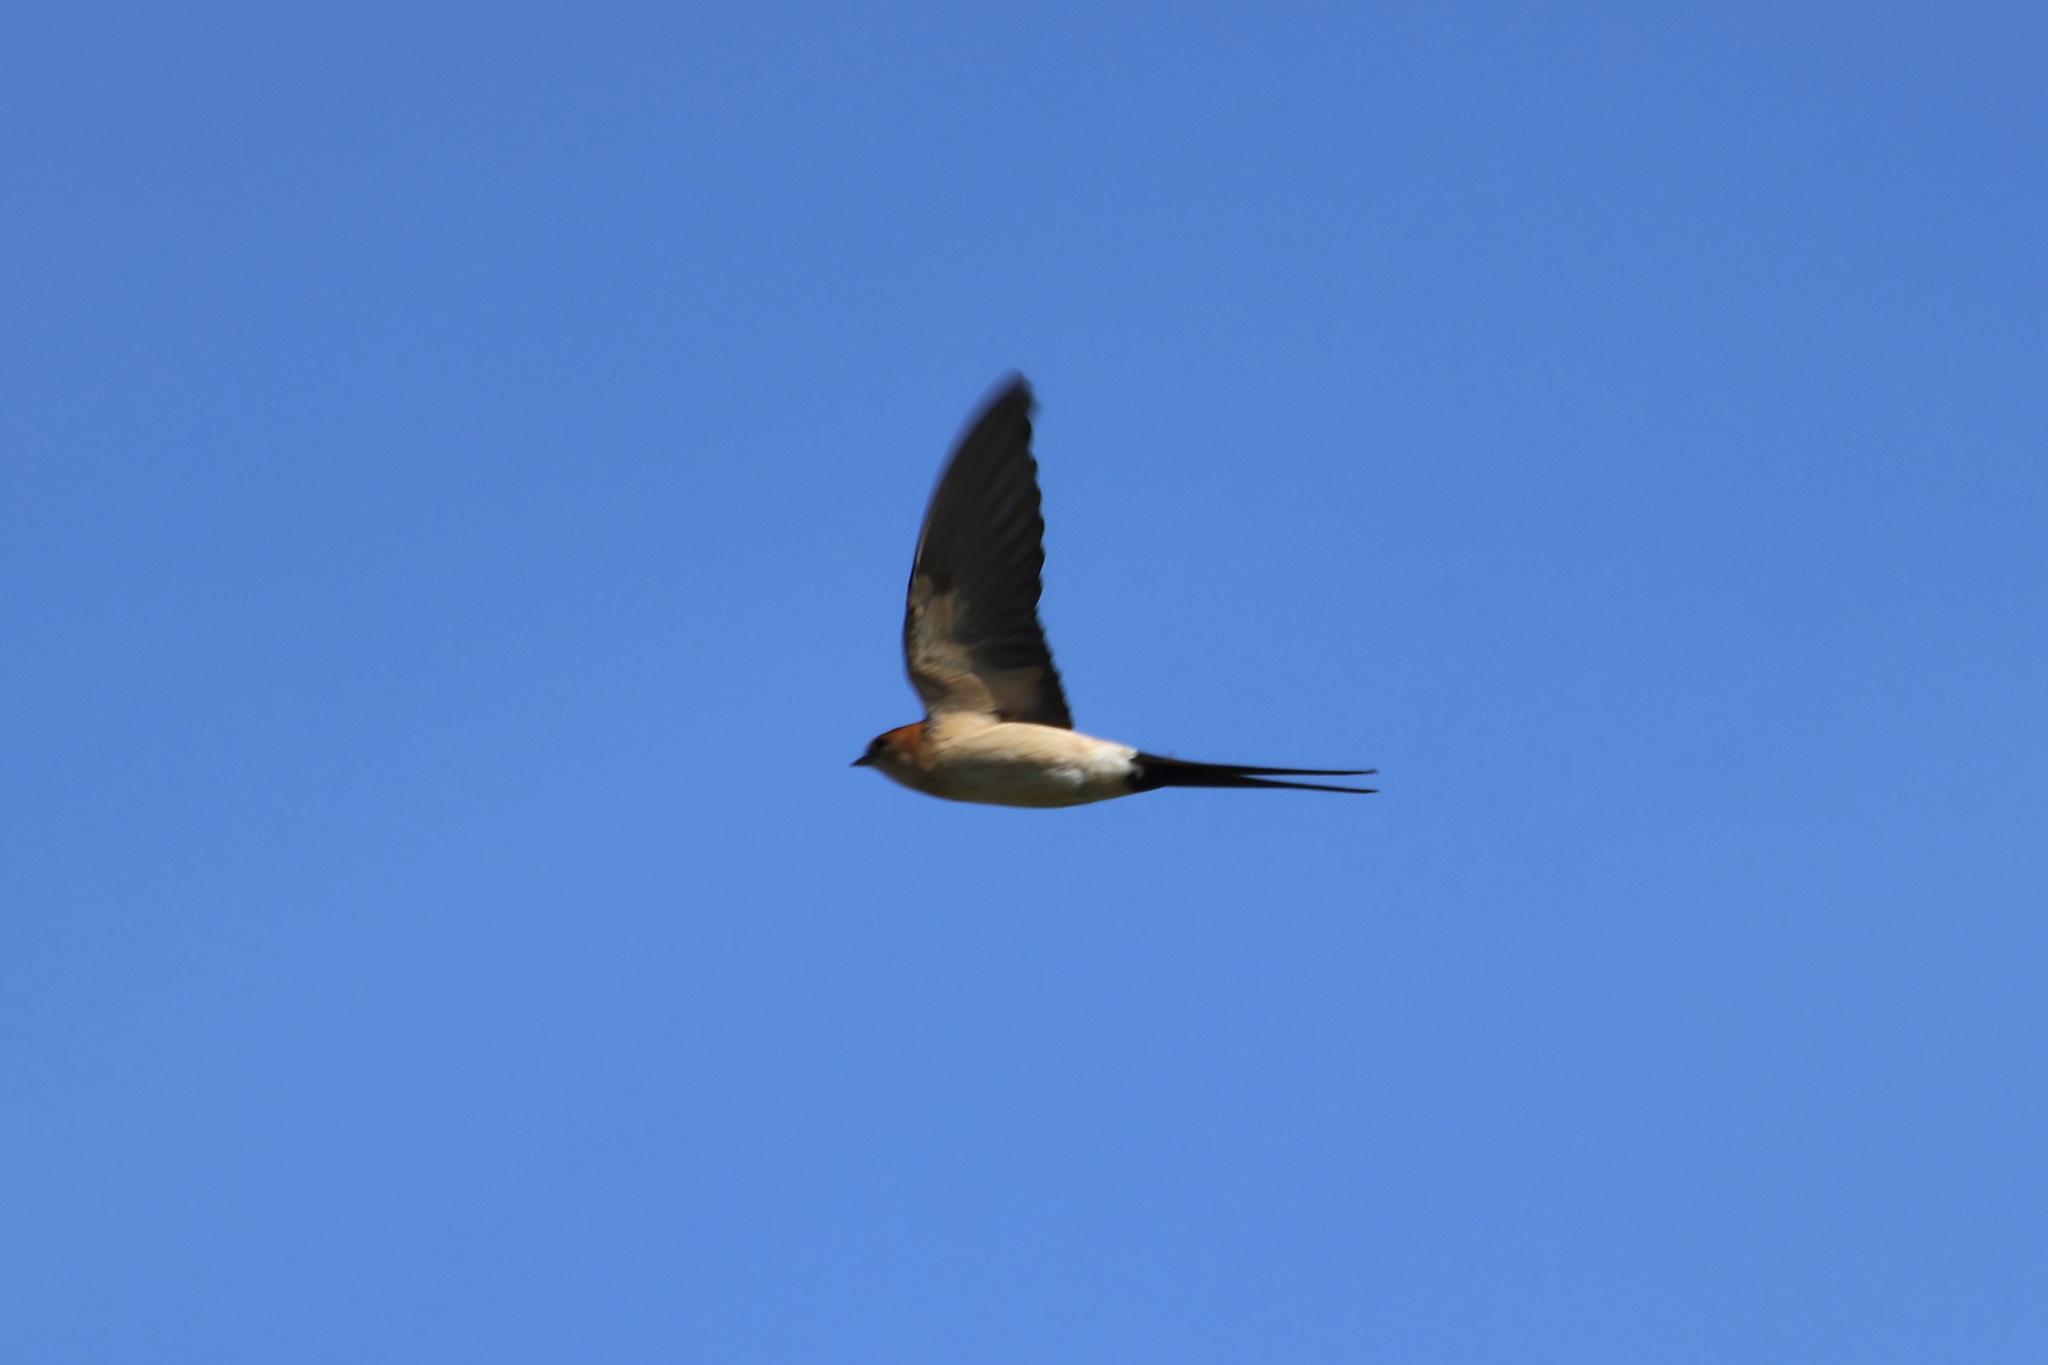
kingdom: Animalia
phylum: Chordata
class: Aves
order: Passeriformes
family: Hirundinidae
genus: Cecropis
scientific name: Cecropis daurica
